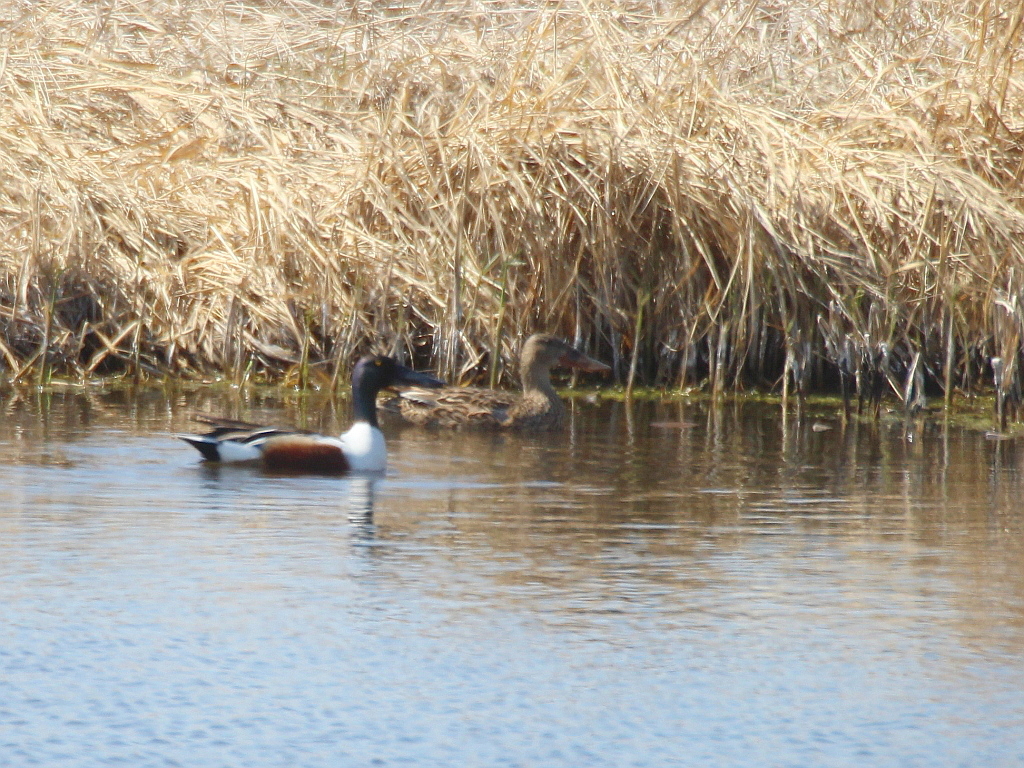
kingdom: Animalia
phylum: Chordata
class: Aves
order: Anseriformes
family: Anatidae
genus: Spatula
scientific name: Spatula clypeata
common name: Northern shoveler
